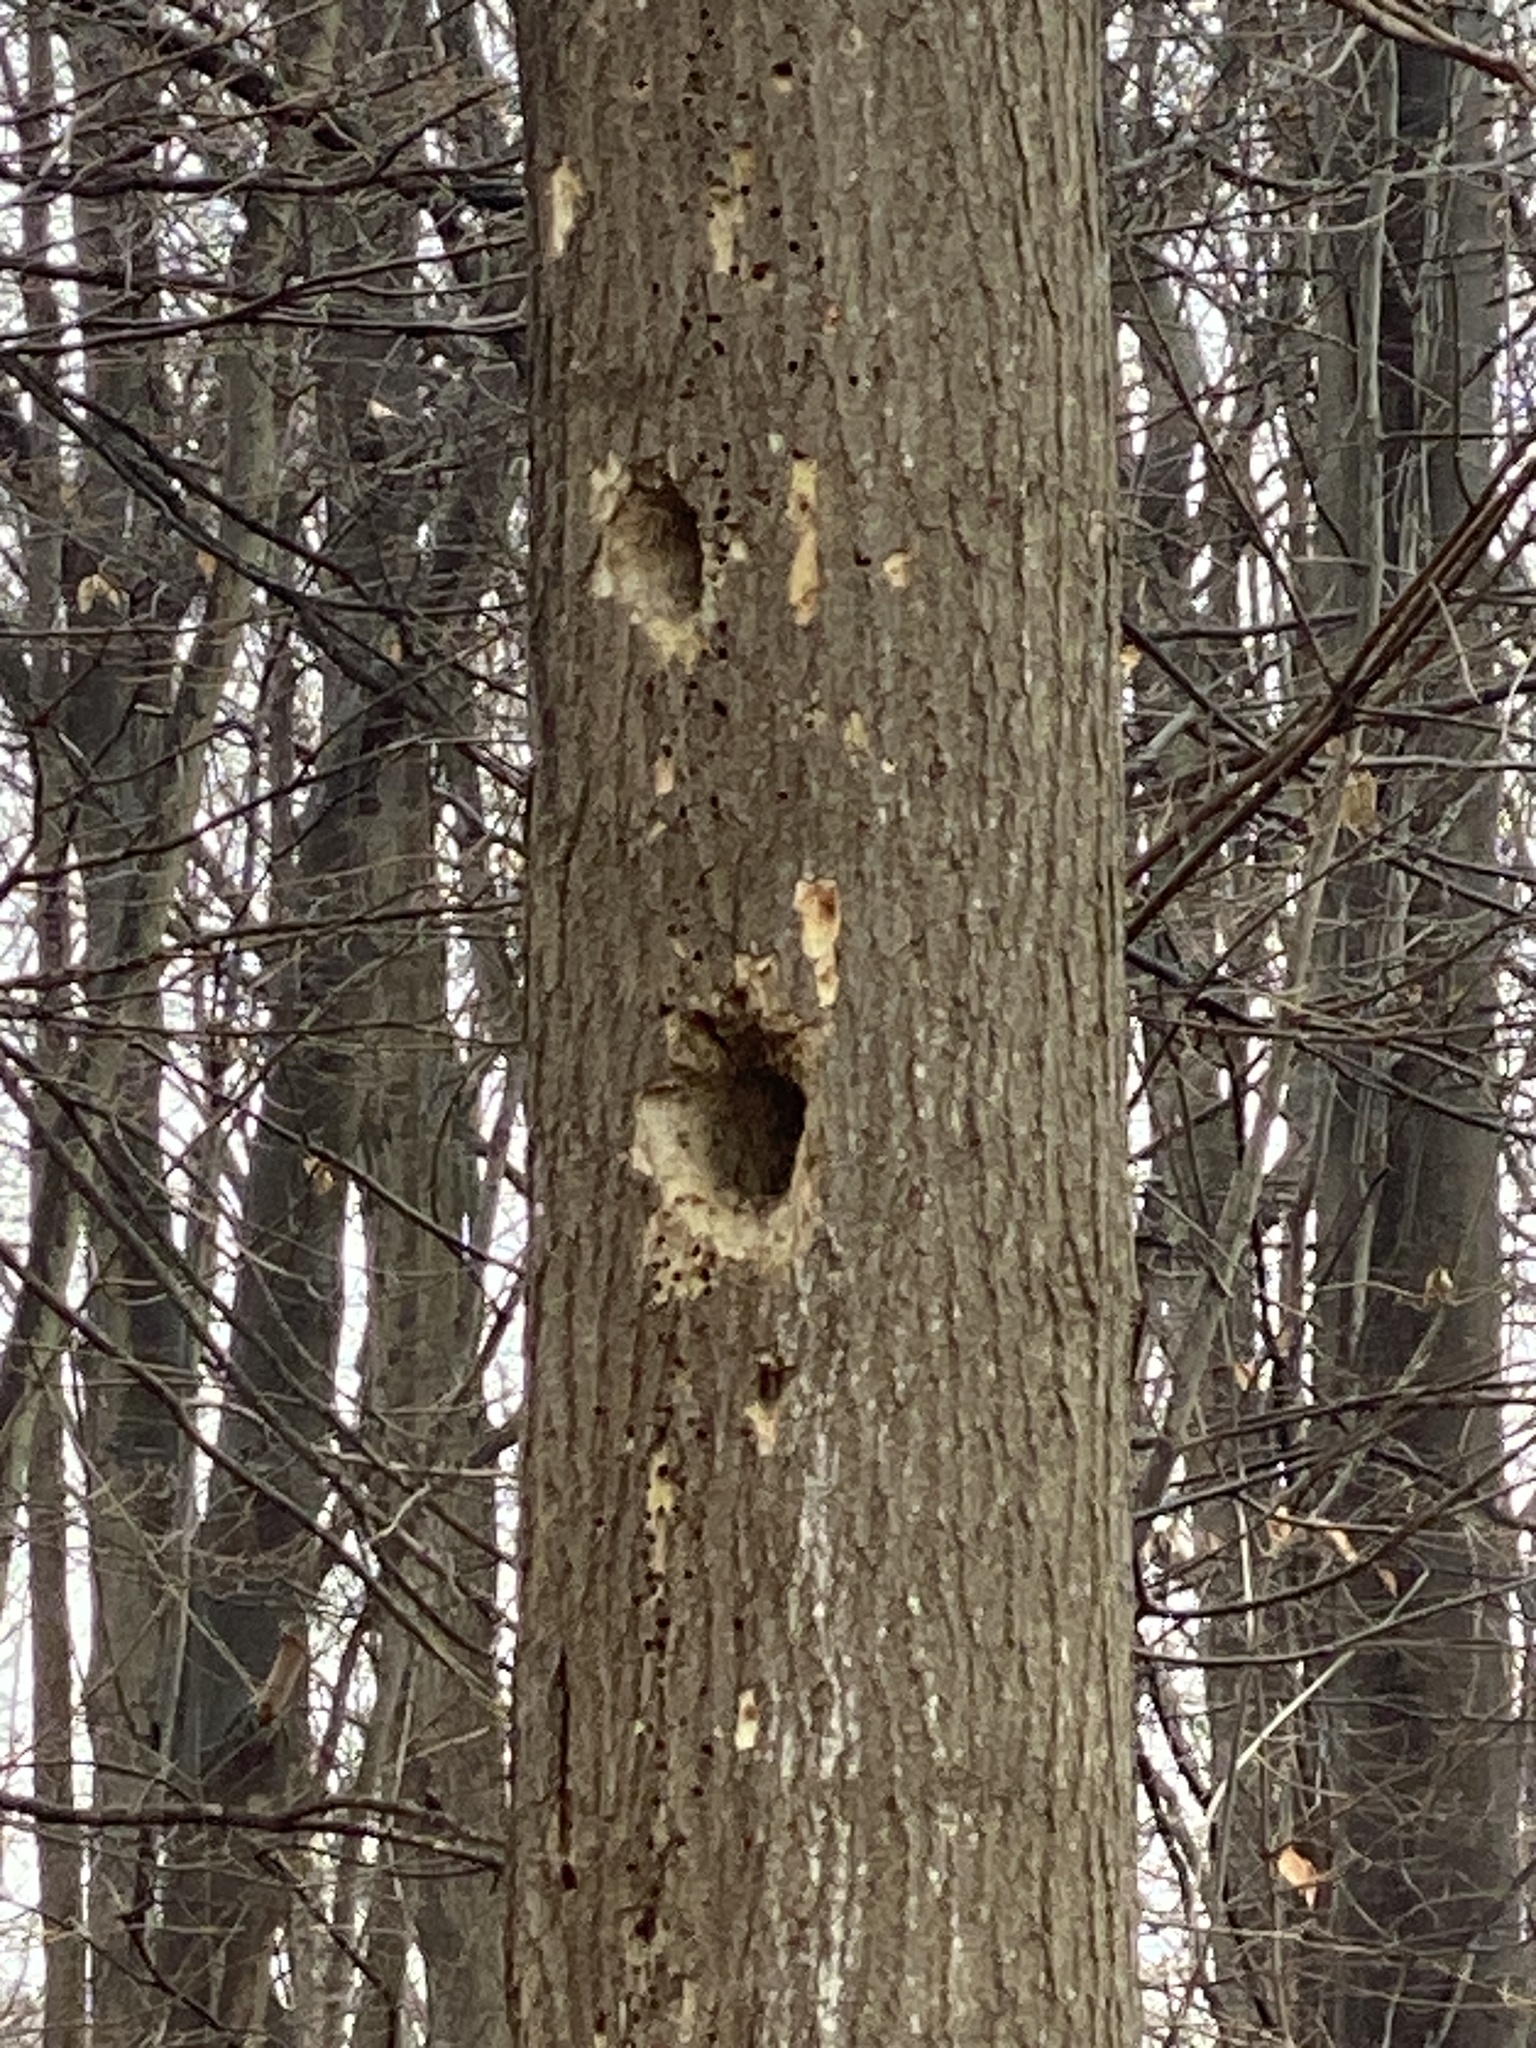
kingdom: Animalia
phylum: Chordata
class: Aves
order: Piciformes
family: Picidae
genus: Dryocopus
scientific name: Dryocopus pileatus
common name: Pileated woodpecker
